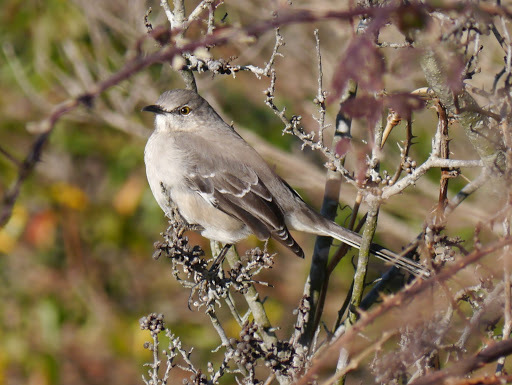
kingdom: Animalia
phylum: Chordata
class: Aves
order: Passeriformes
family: Mimidae
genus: Mimus
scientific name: Mimus polyglottos
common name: Northern mockingbird
